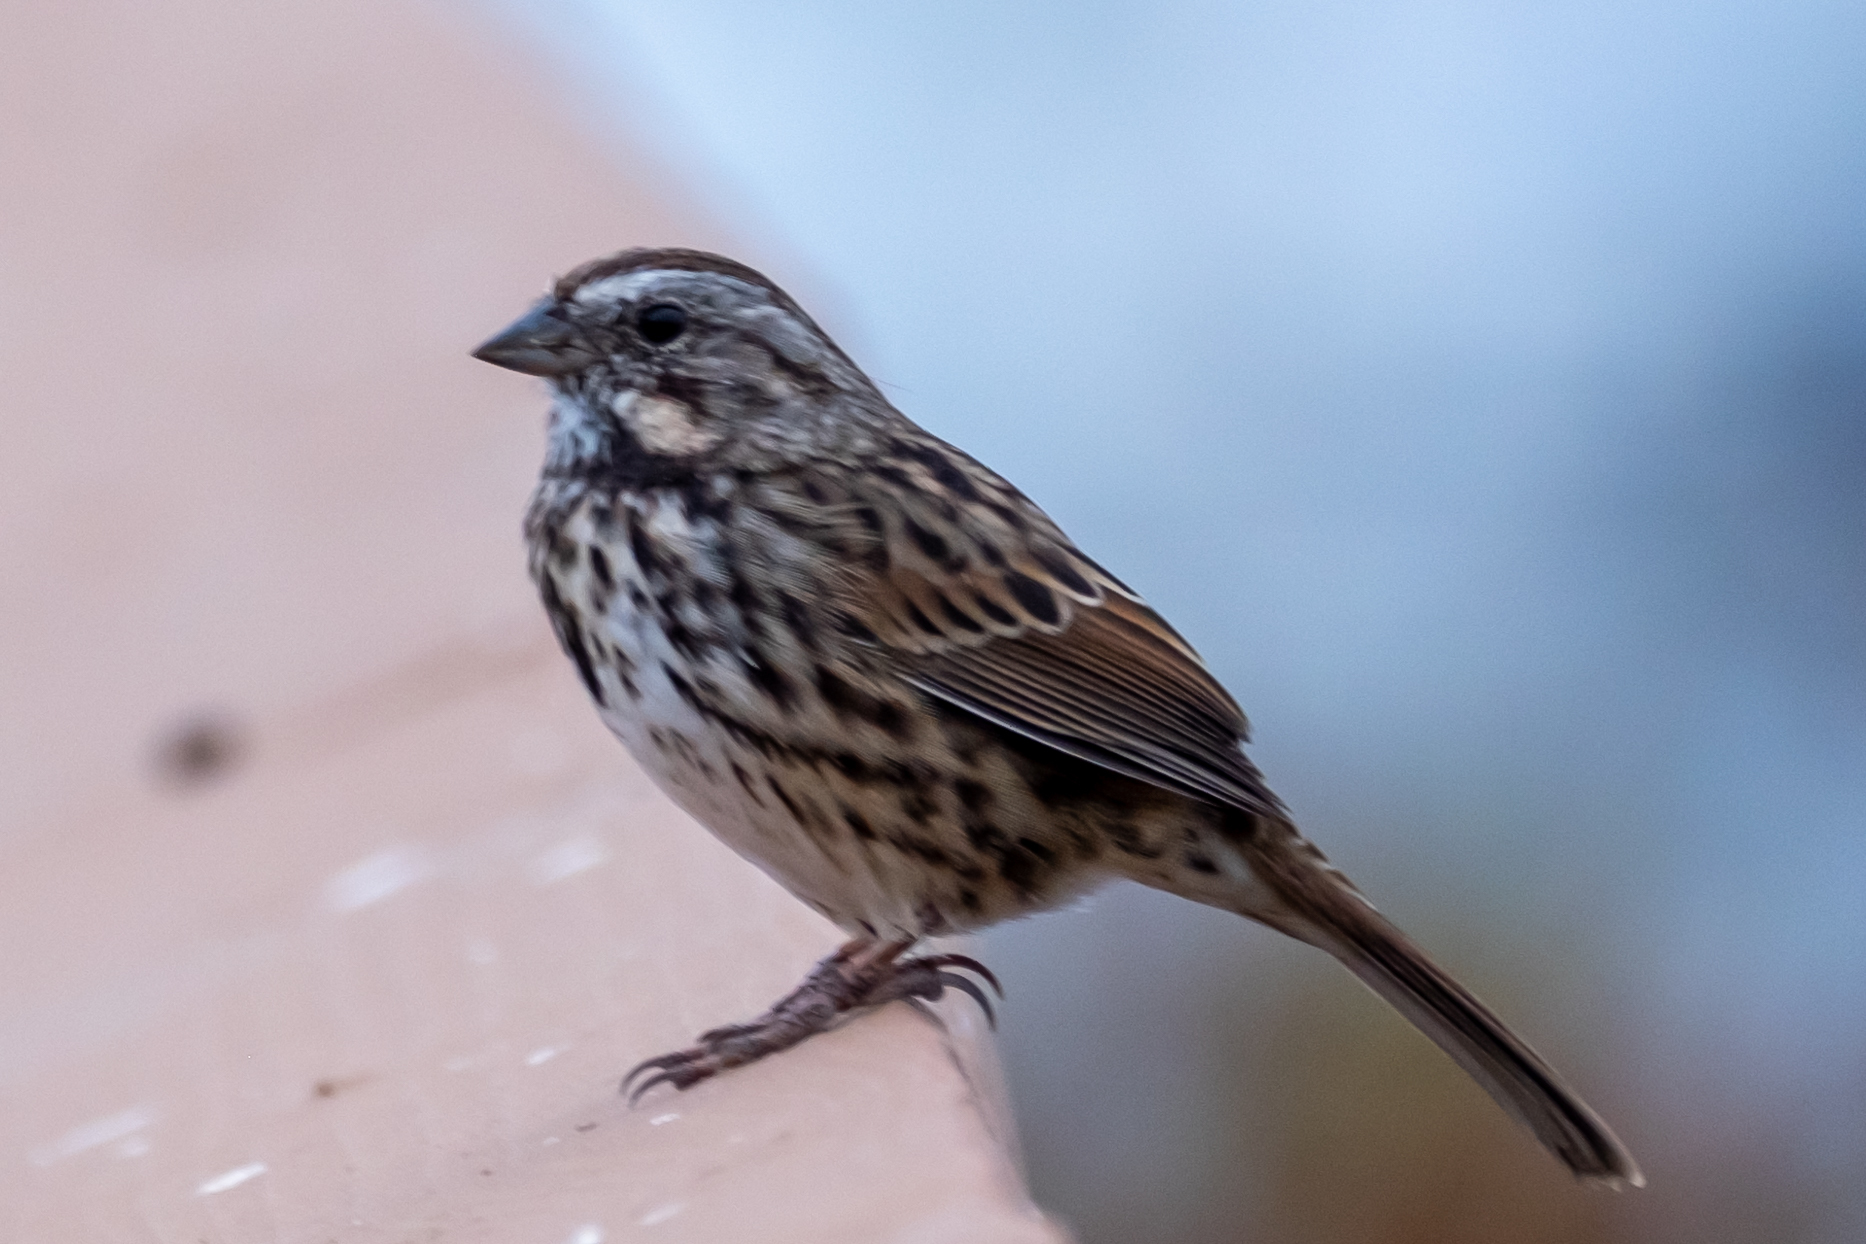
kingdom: Animalia
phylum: Chordata
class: Aves
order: Passeriformes
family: Passerellidae
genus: Melospiza
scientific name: Melospiza melodia
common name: Song sparrow
